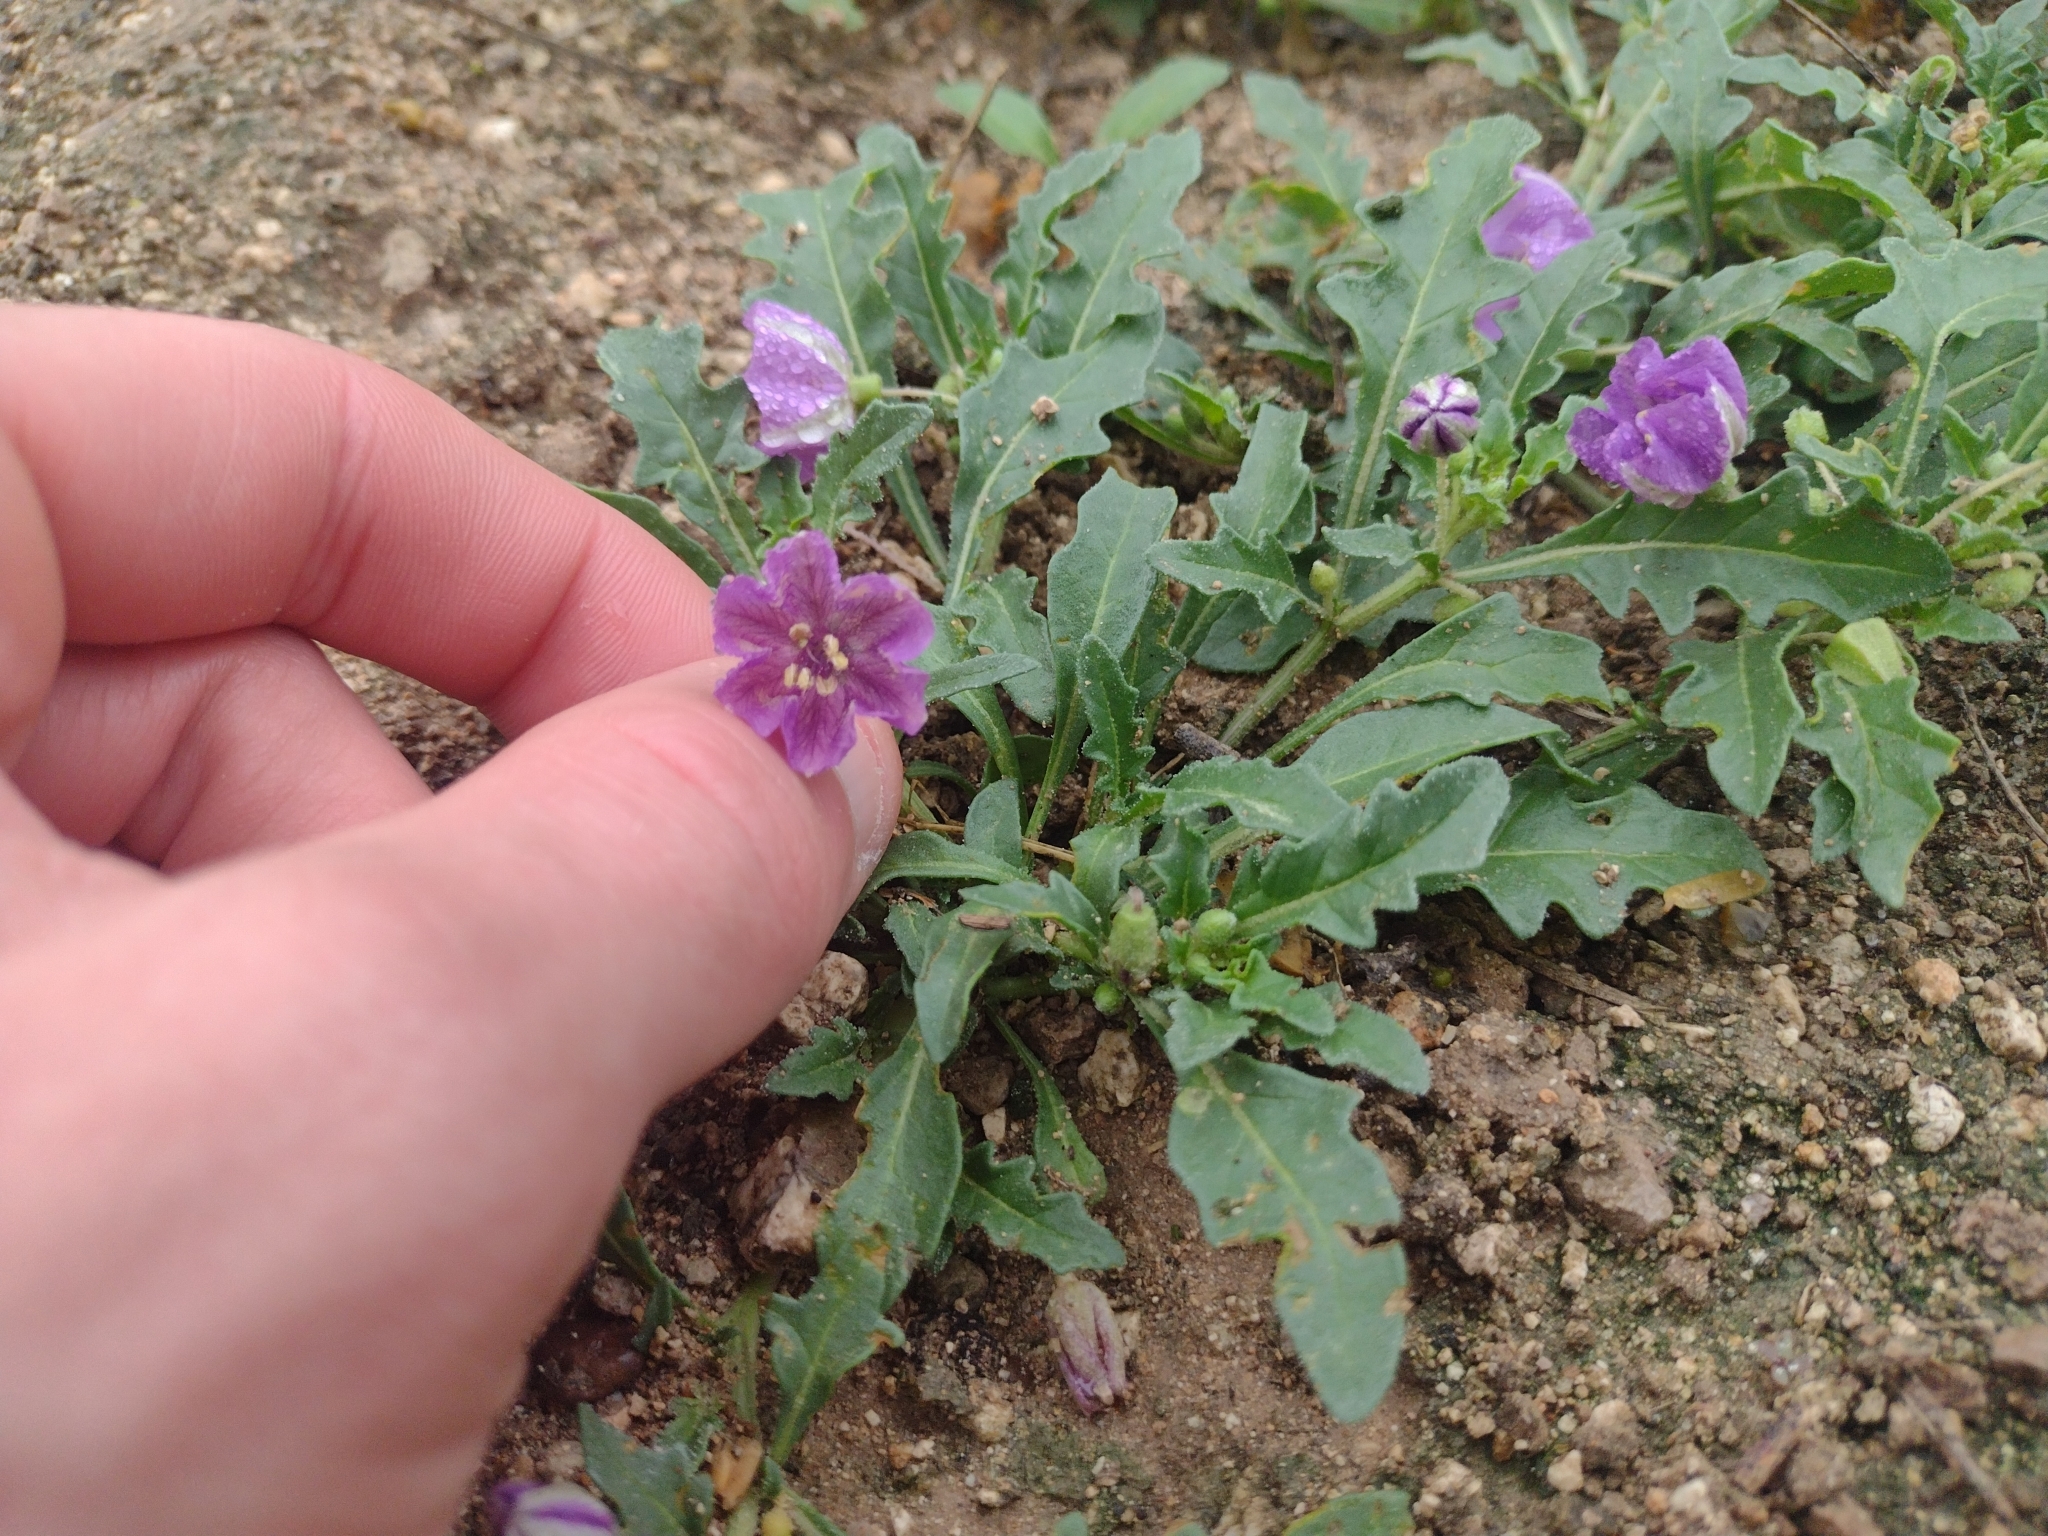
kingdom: Plantae
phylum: Tracheophyta
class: Magnoliopsida
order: Solanales
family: Solanaceae
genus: Quincula
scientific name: Quincula lobata
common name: Purple-ground-cherry
